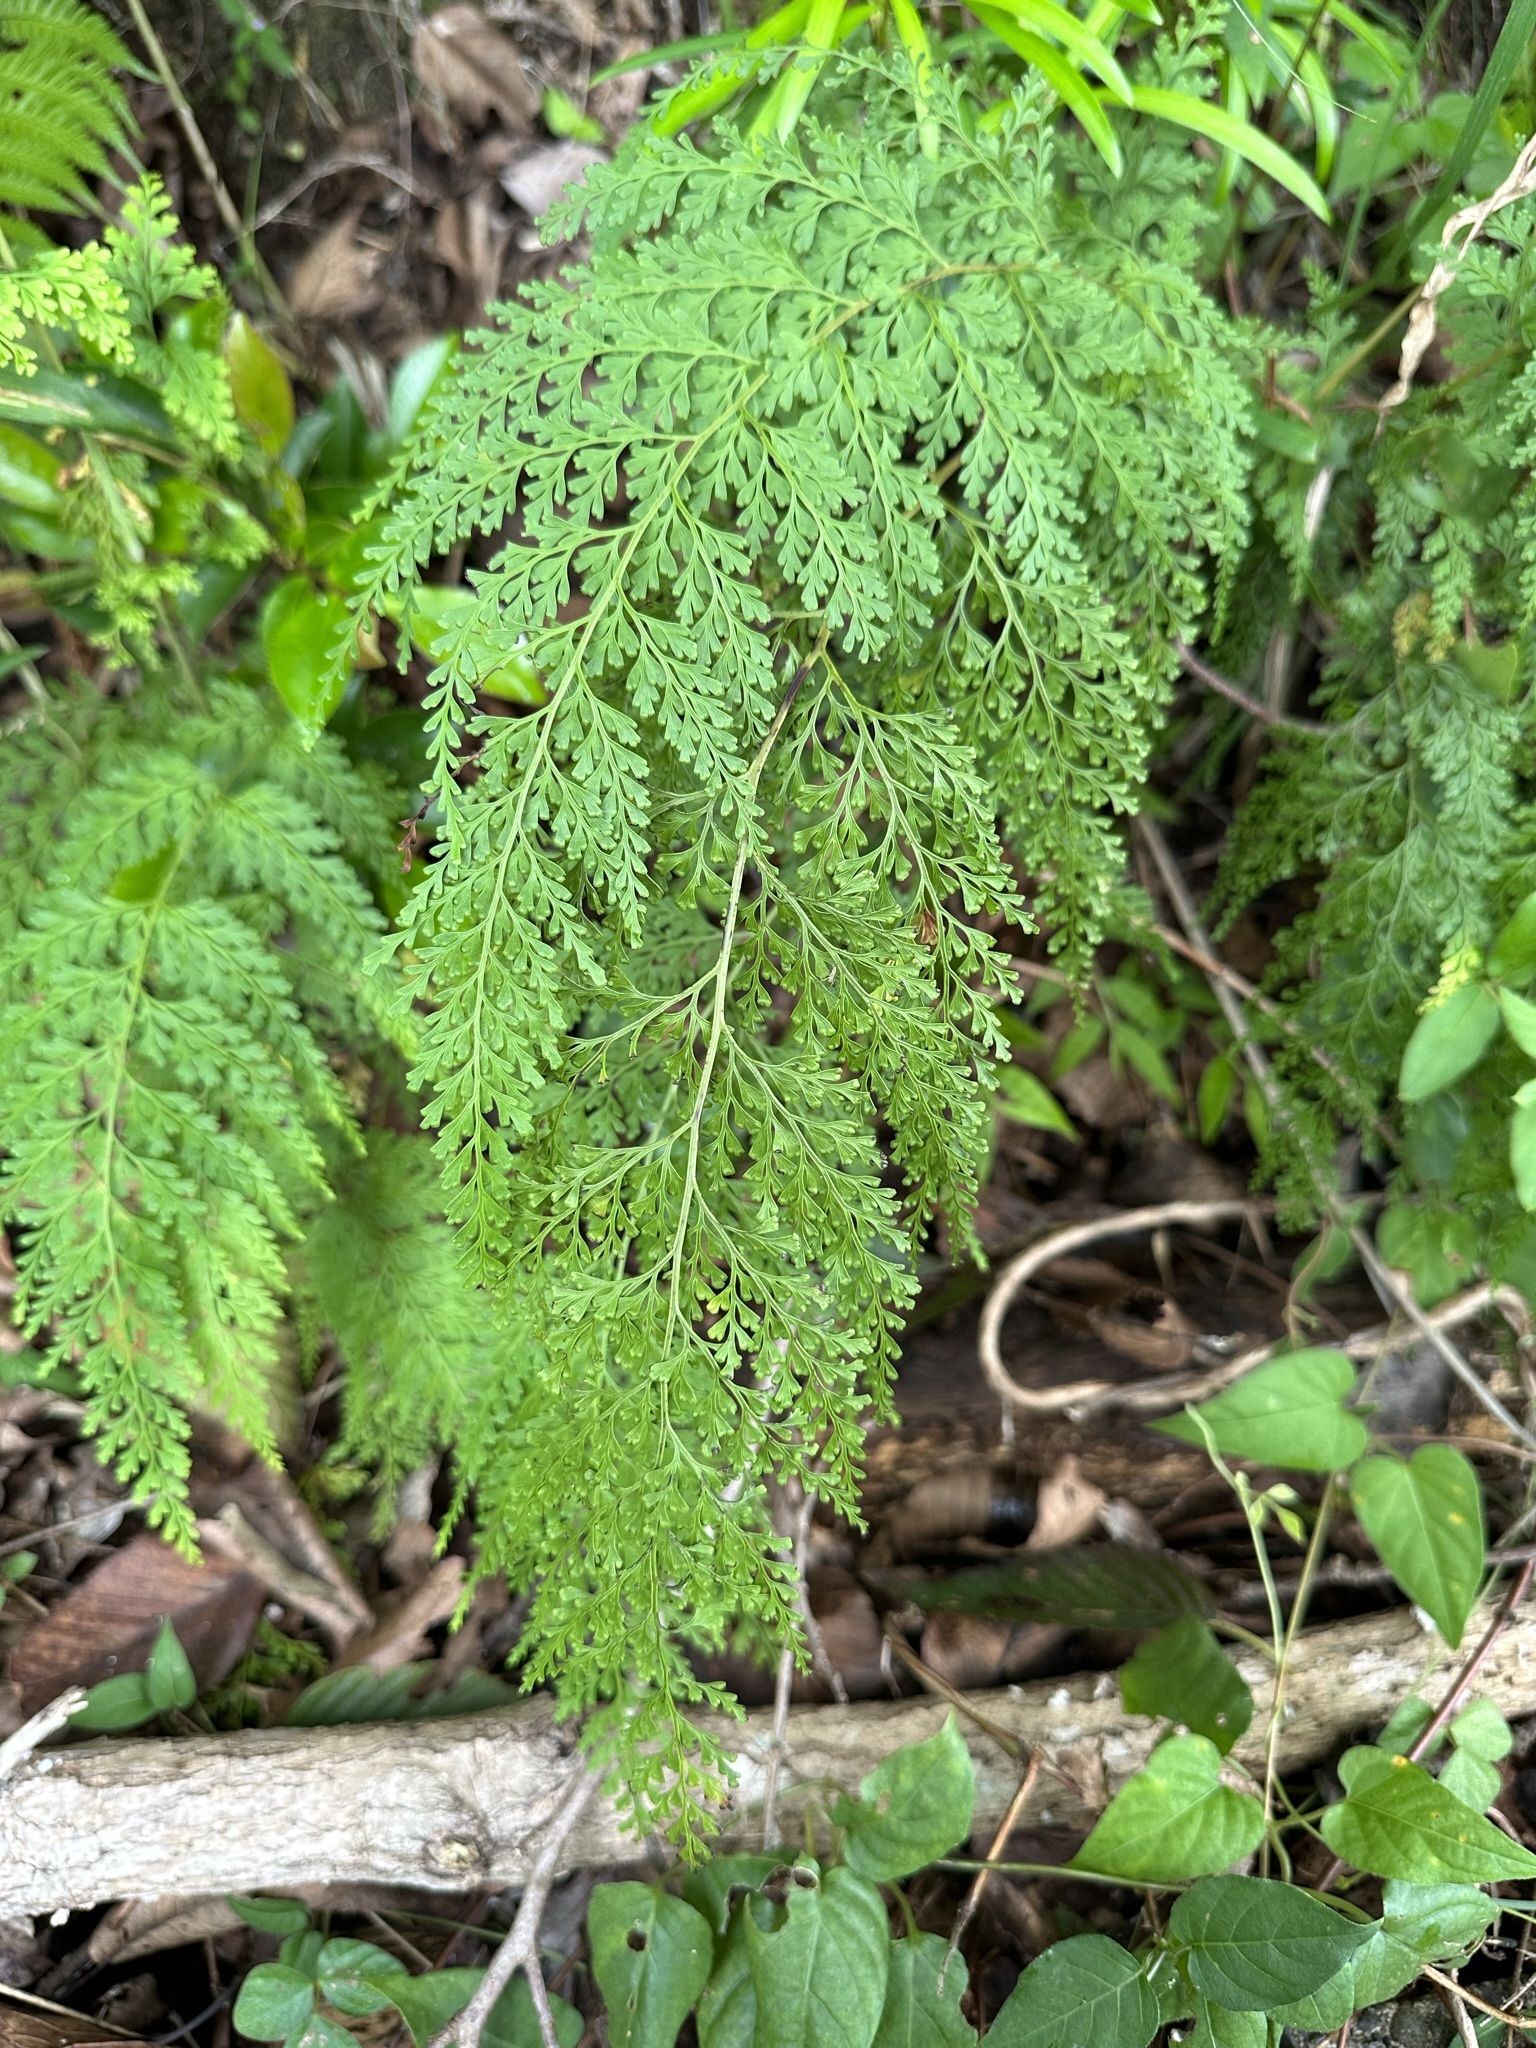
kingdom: Plantae
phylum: Tracheophyta
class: Polypodiopsida
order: Polypodiales
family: Lindsaeaceae
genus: Odontosoria
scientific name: Odontosoria chinensis
